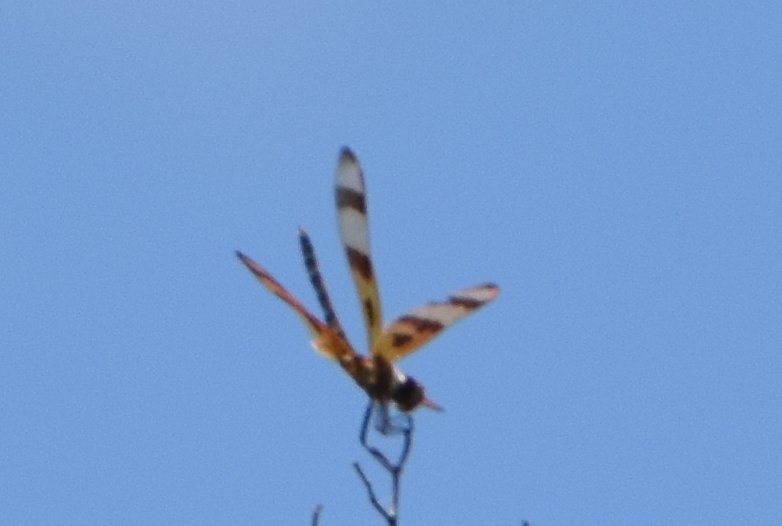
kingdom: Animalia
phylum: Arthropoda
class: Insecta
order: Odonata
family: Libellulidae
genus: Celithemis
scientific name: Celithemis eponina
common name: Halloween pennant
